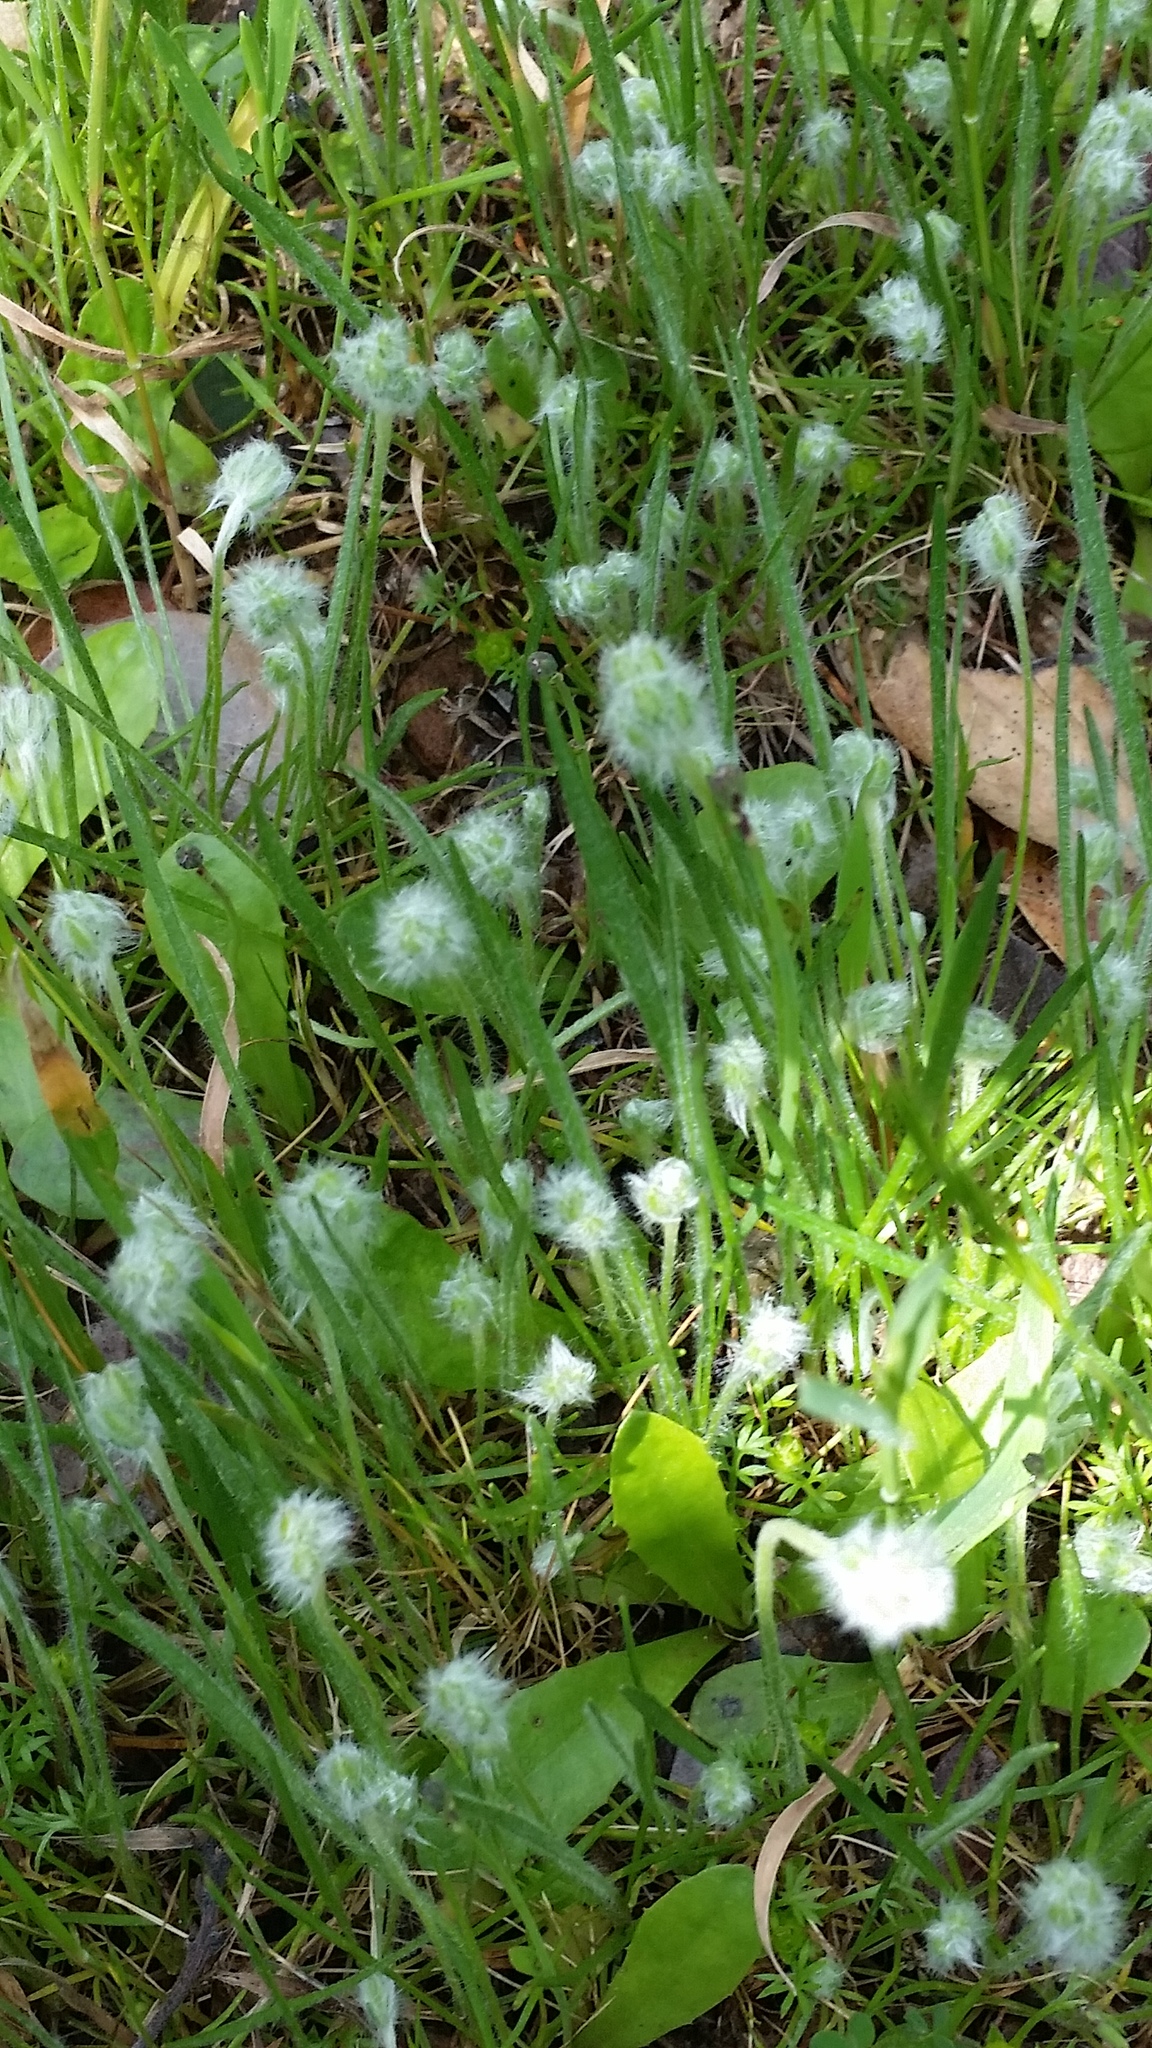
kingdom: Plantae
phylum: Tracheophyta
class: Magnoliopsida
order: Asterales
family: Asteraceae
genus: Bombycilaena
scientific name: Bombycilaena californica
